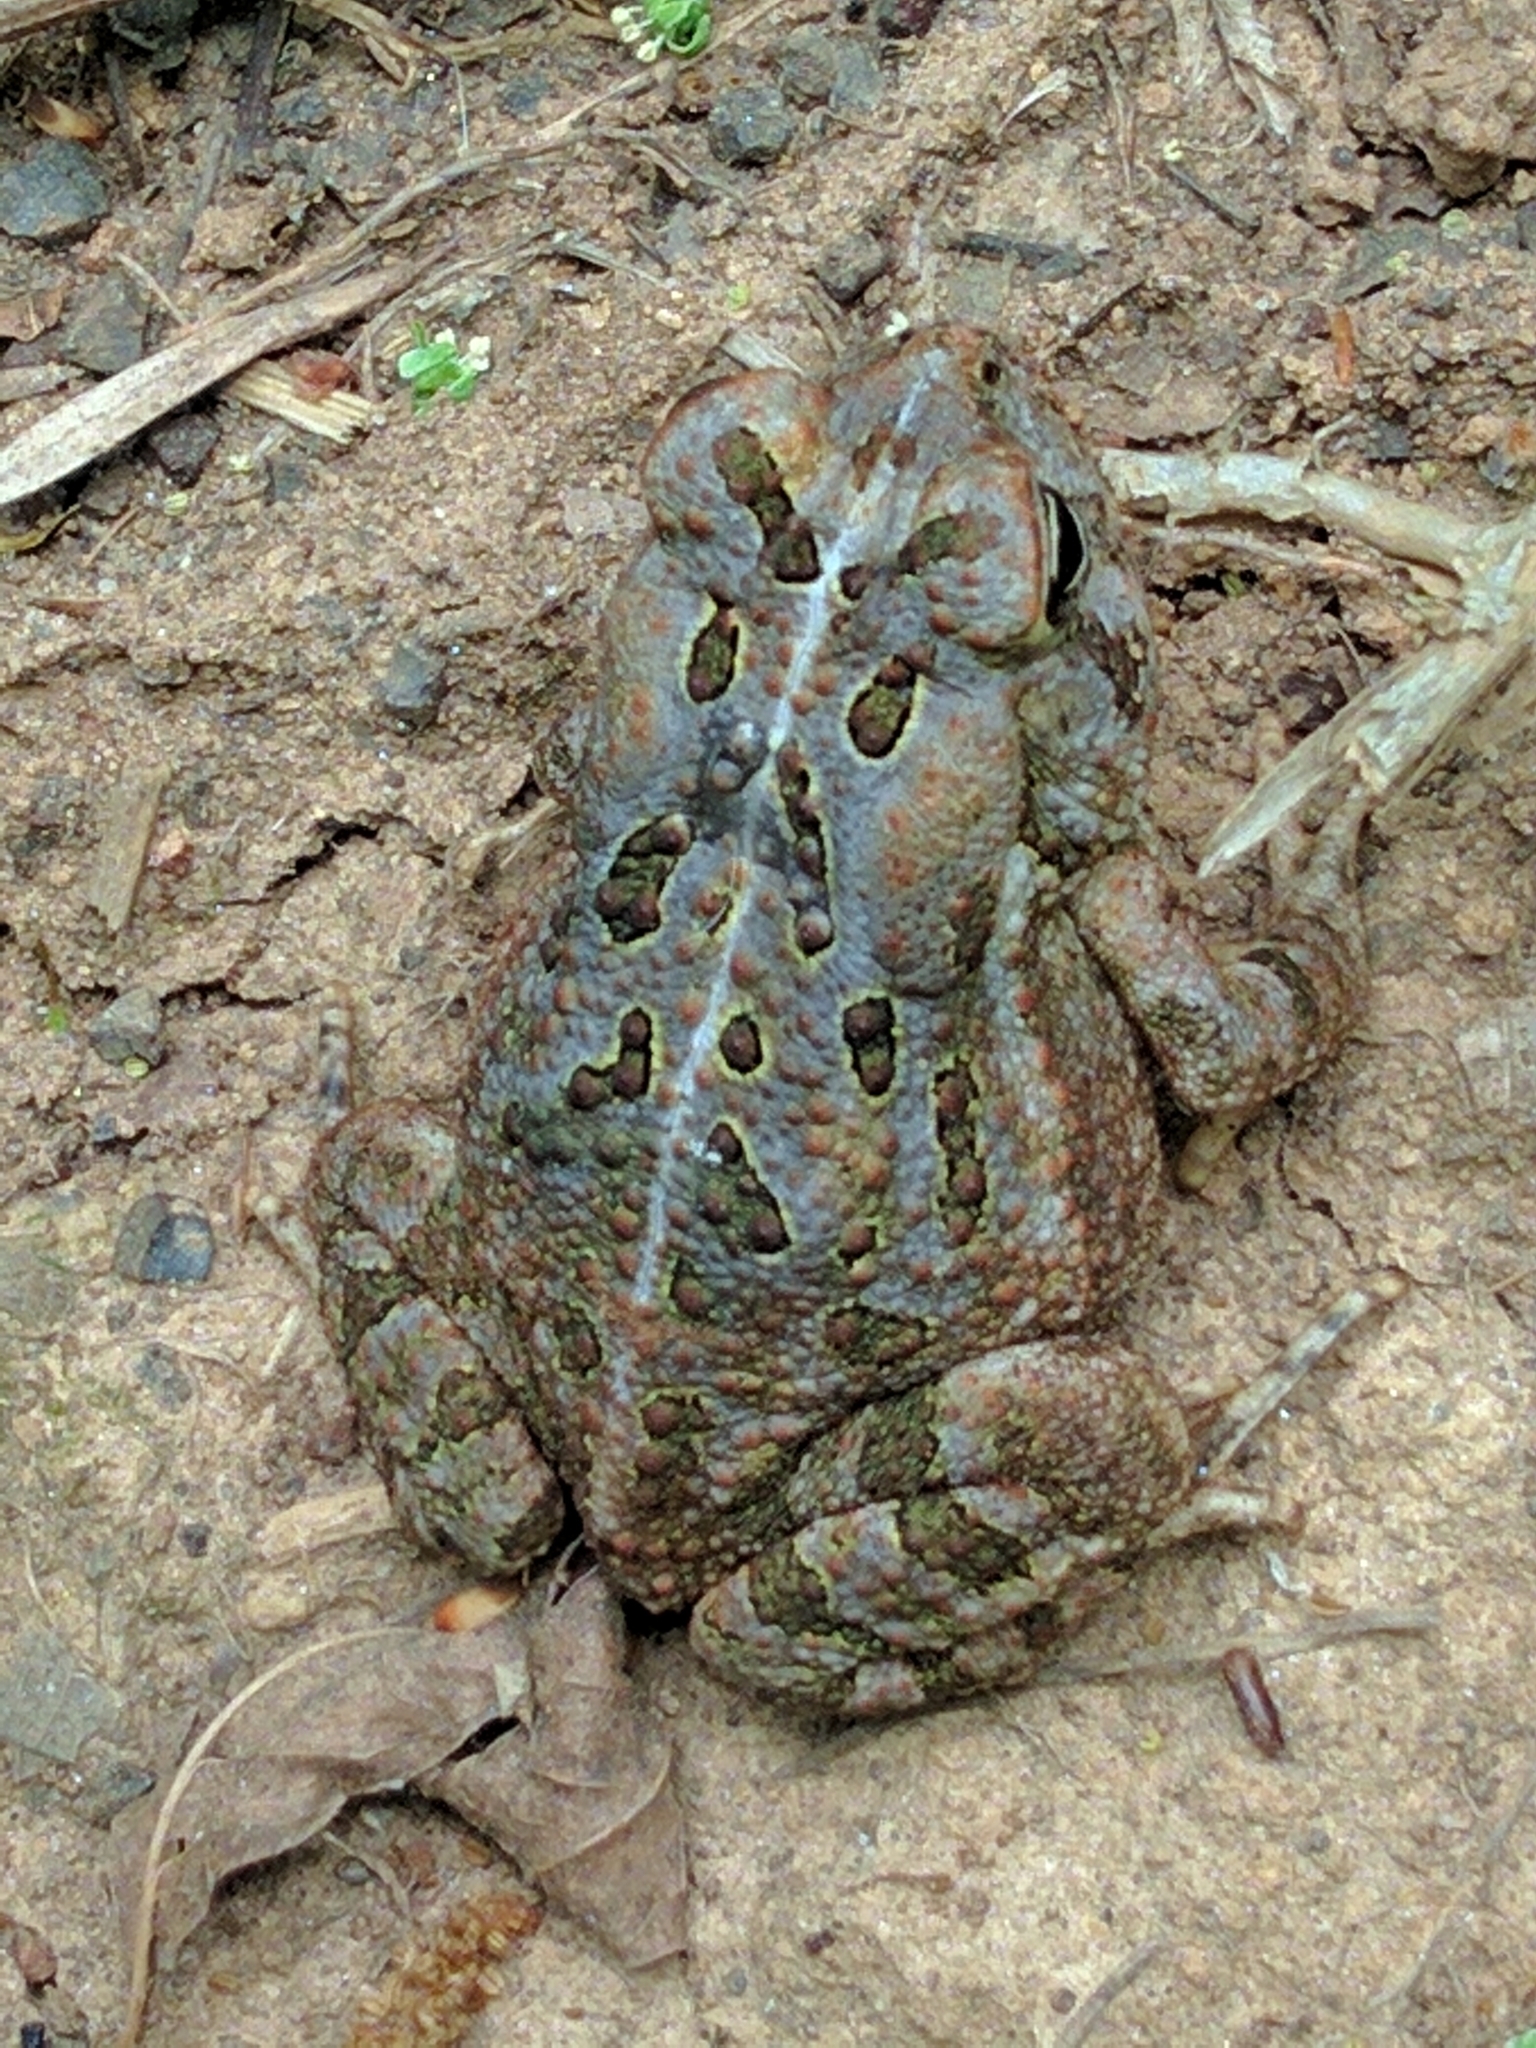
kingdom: Animalia
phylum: Chordata
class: Amphibia
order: Anura
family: Bufonidae
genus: Anaxyrus
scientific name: Anaxyrus fowleri
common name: Fowler's toad
